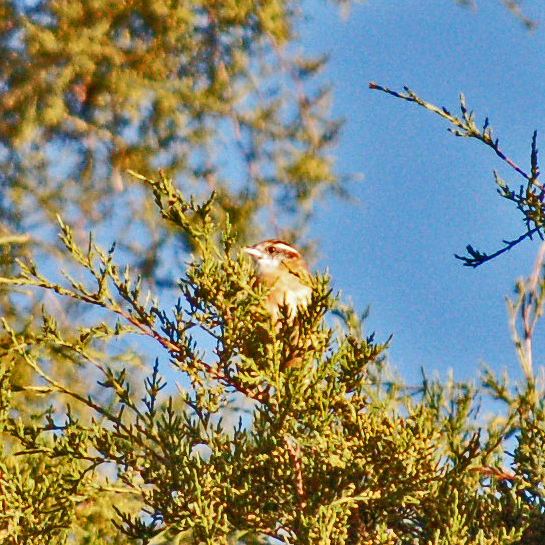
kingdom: Animalia
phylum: Chordata
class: Aves
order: Passeriformes
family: Troglodytidae
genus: Thryothorus
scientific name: Thryothorus ludovicianus
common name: Carolina wren
